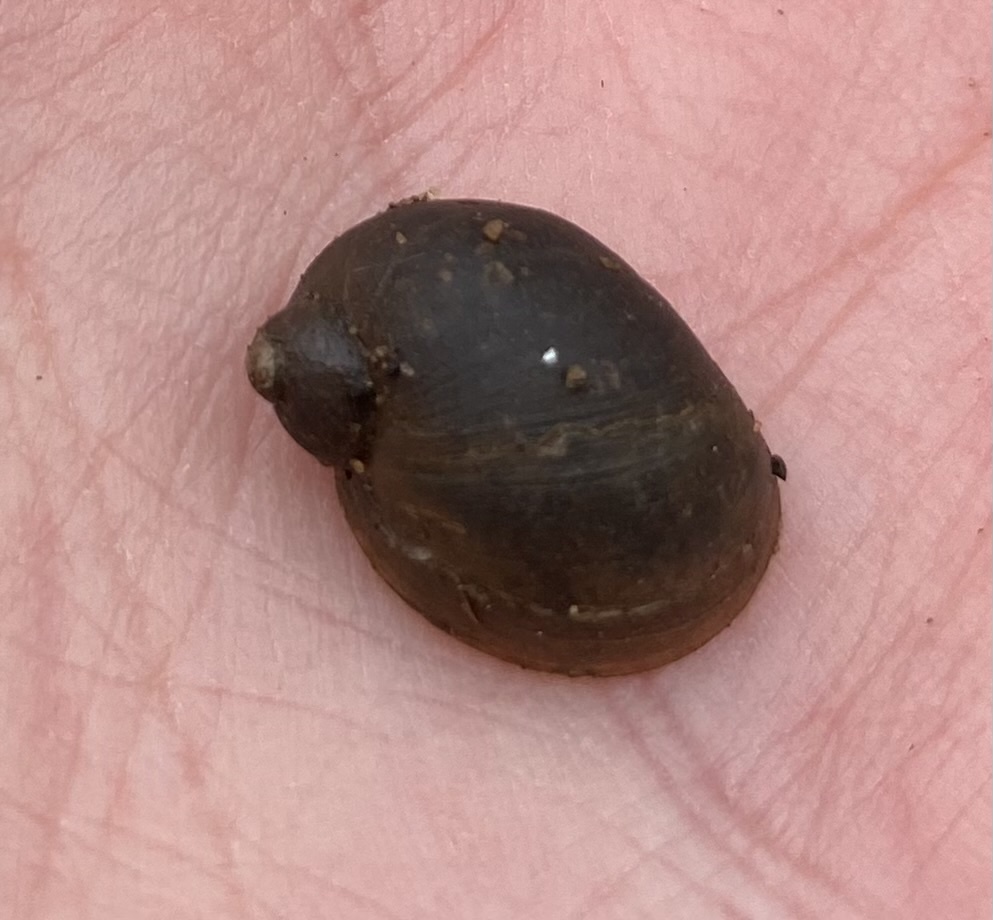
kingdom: Animalia
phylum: Mollusca
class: Gastropoda
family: Lymnaeidae
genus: Ampullaceana
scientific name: Ampullaceana balthica
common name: Wandering pond snail
